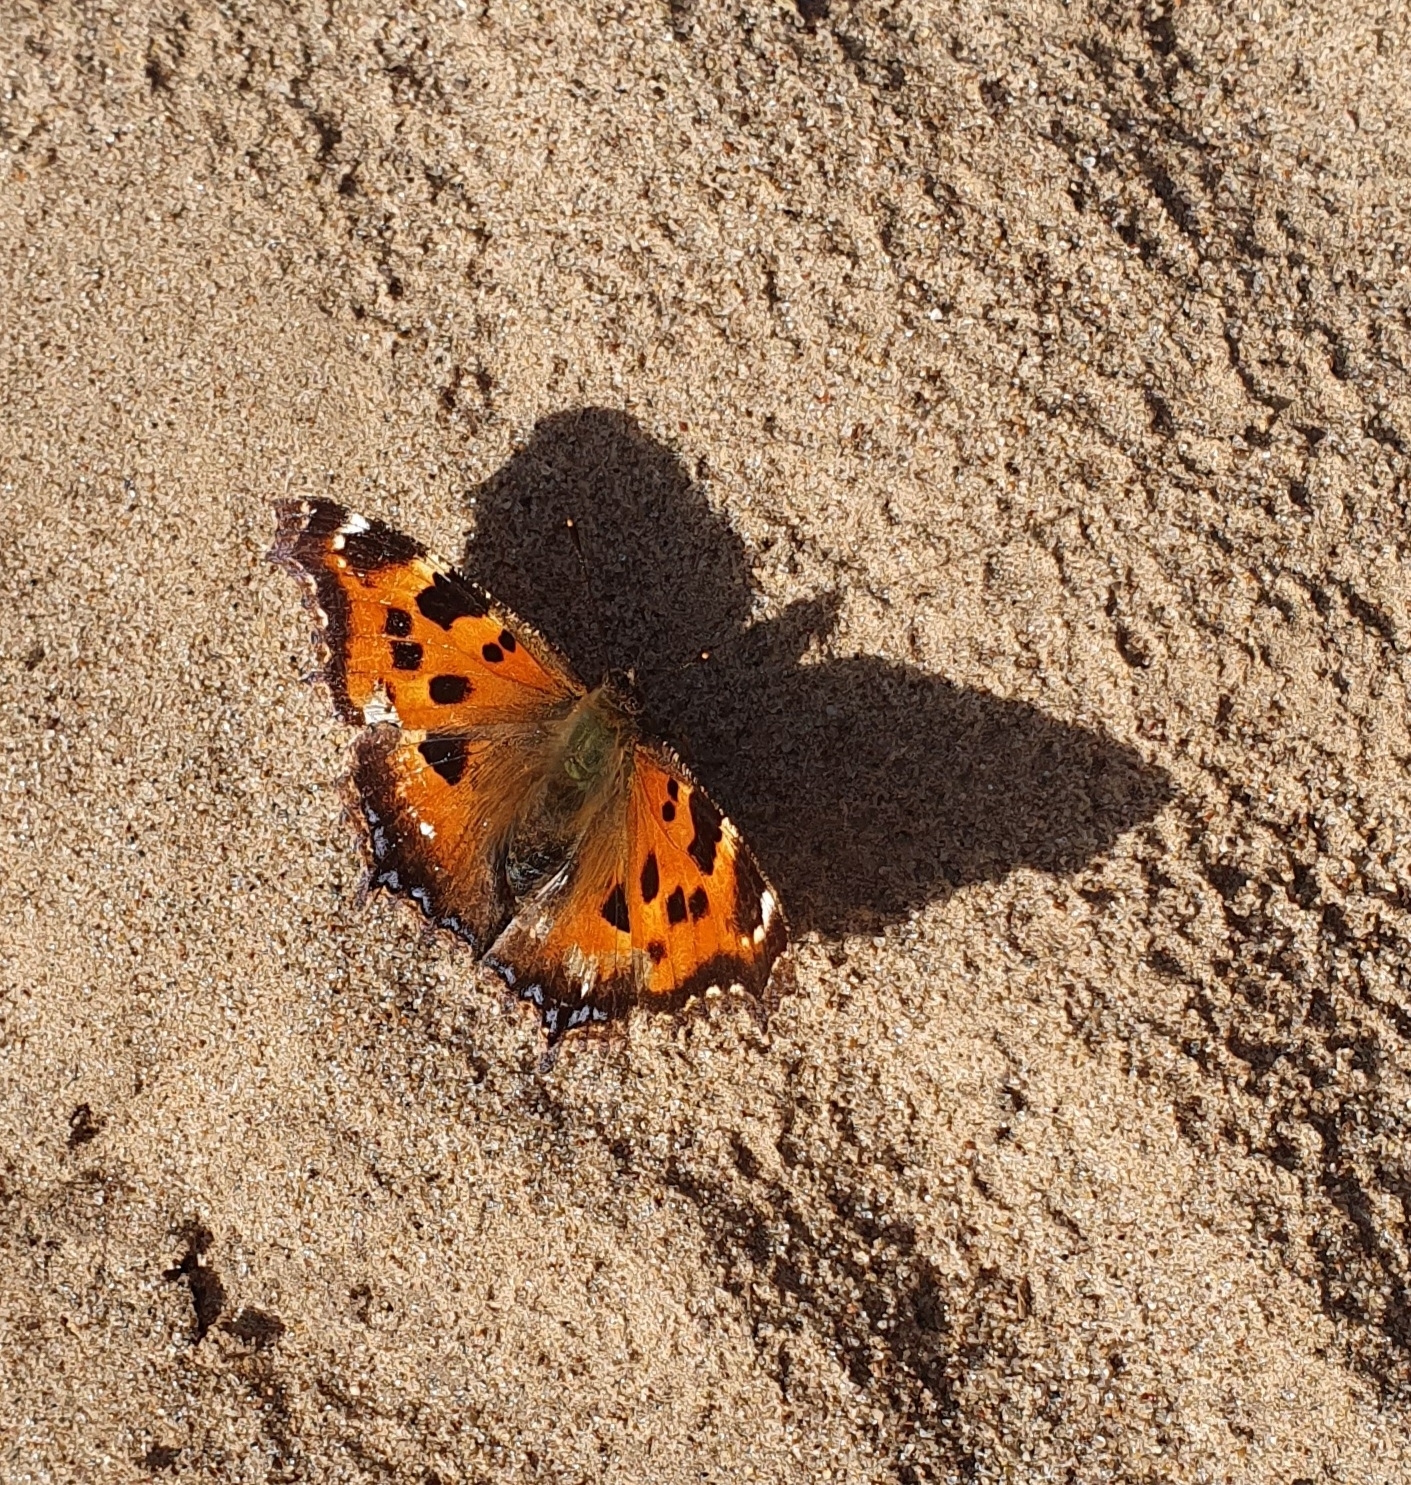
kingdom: Animalia
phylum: Arthropoda
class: Insecta
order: Lepidoptera
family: Nymphalidae
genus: Nymphalis
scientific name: Nymphalis xanthomelas
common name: Scarce tortoiseshell
